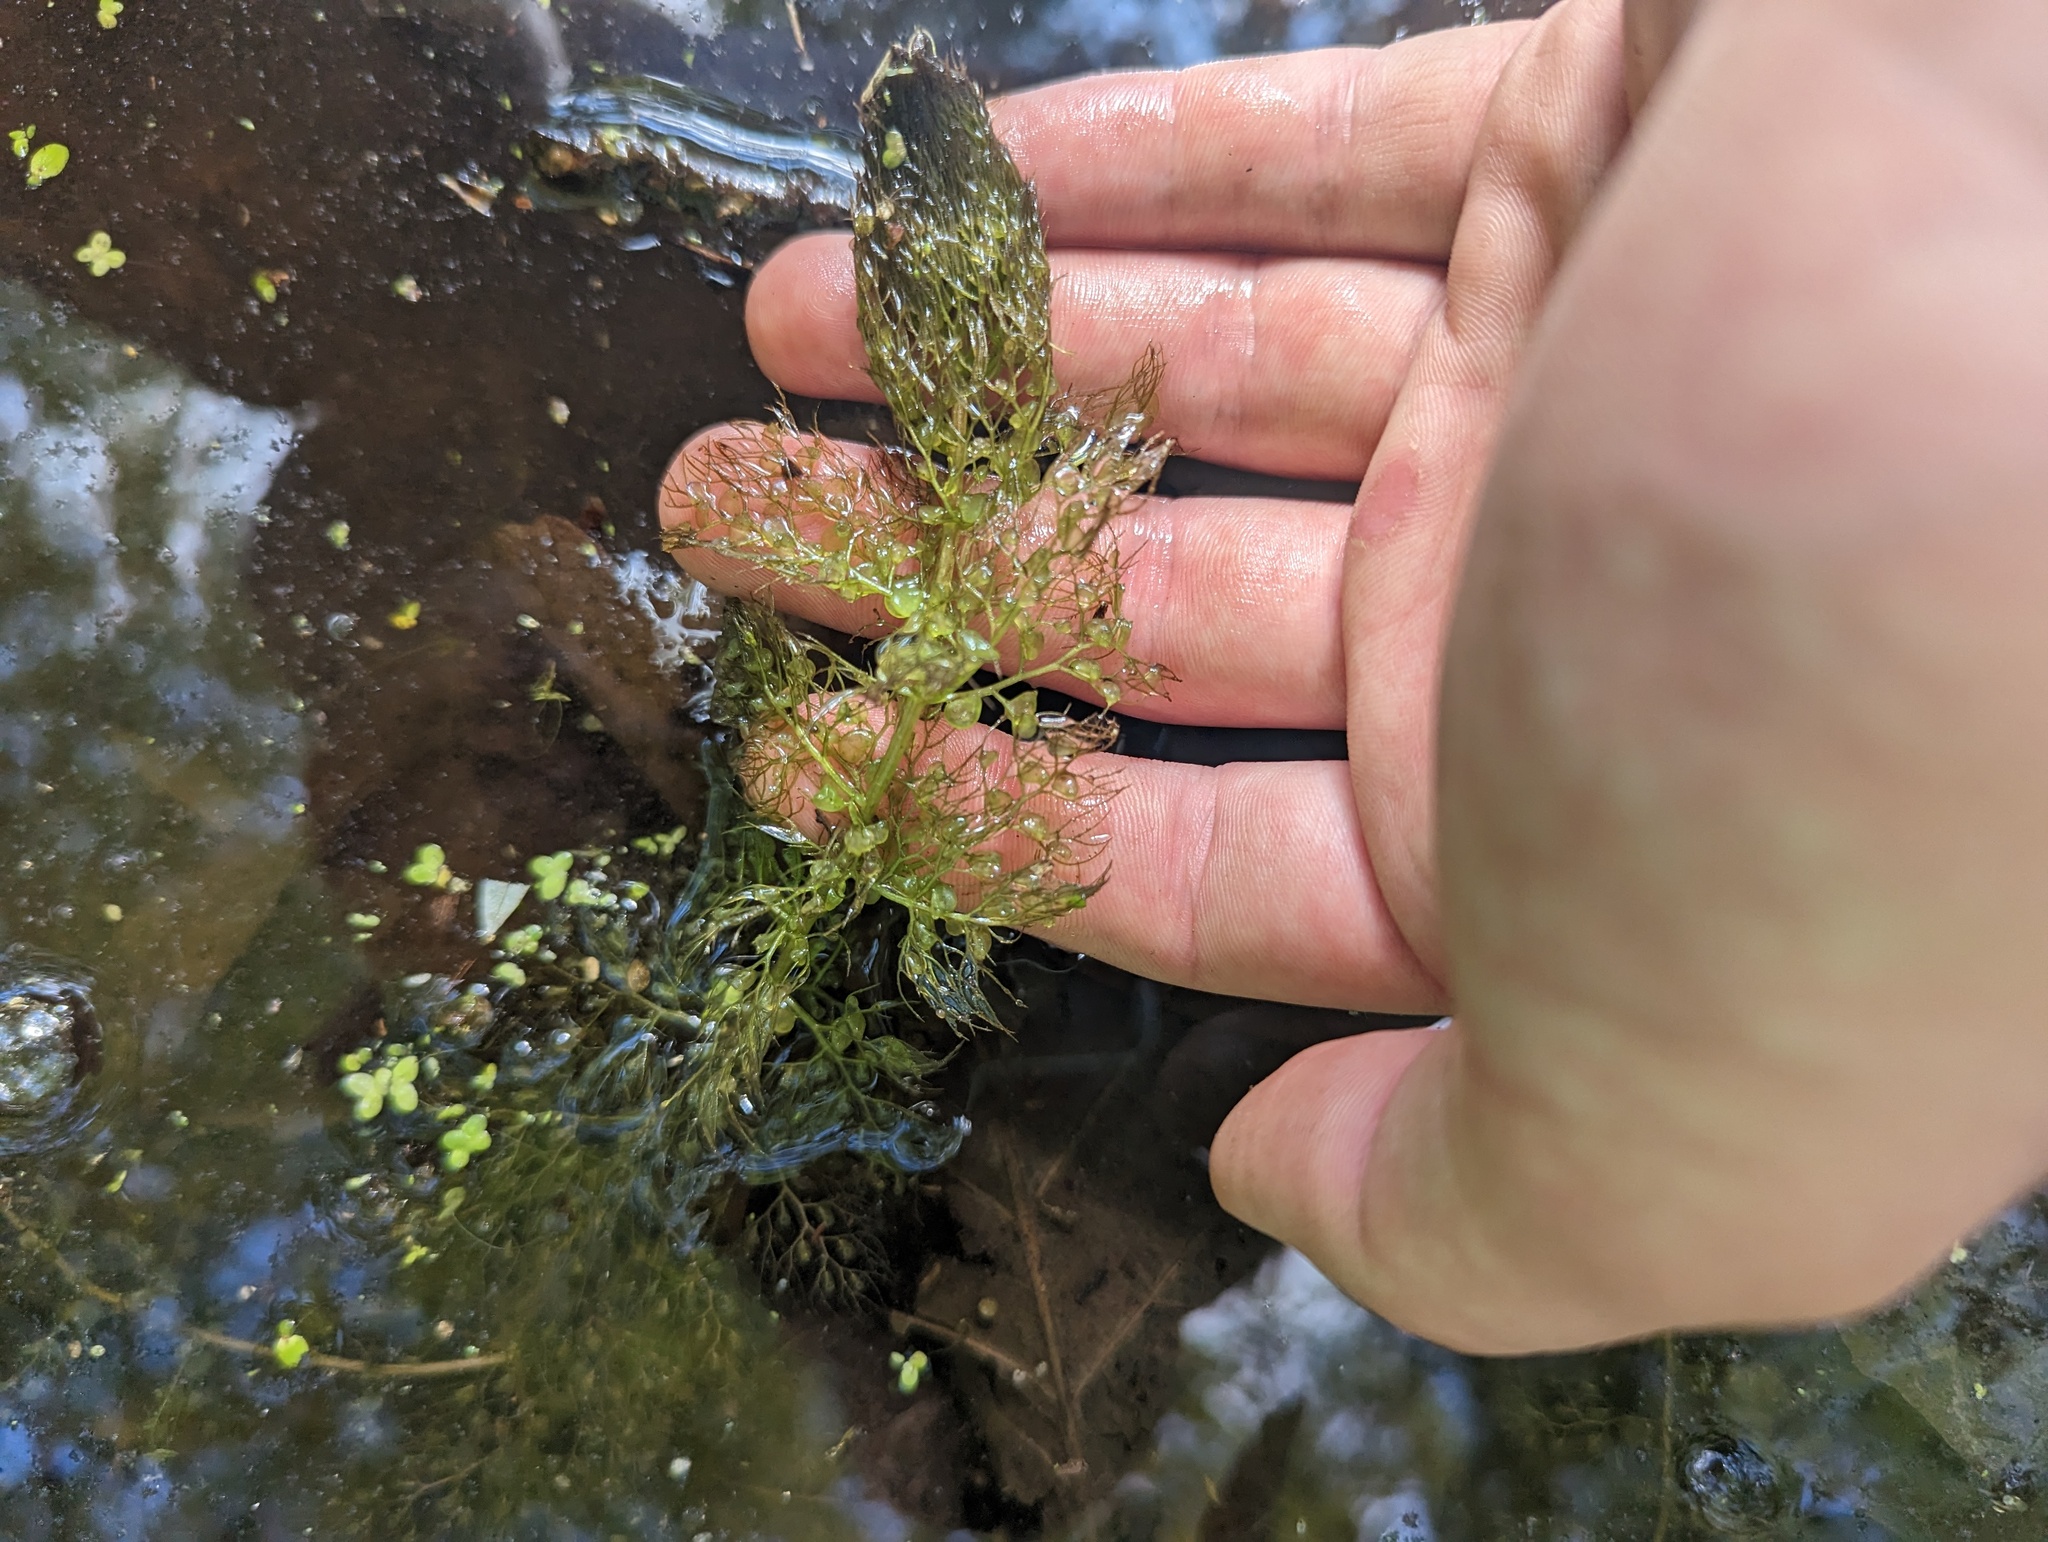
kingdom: Plantae
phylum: Tracheophyta
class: Magnoliopsida
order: Lamiales
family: Lentibulariaceae
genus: Utricularia
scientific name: Utricularia macrorhiza
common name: Common bladderwort
